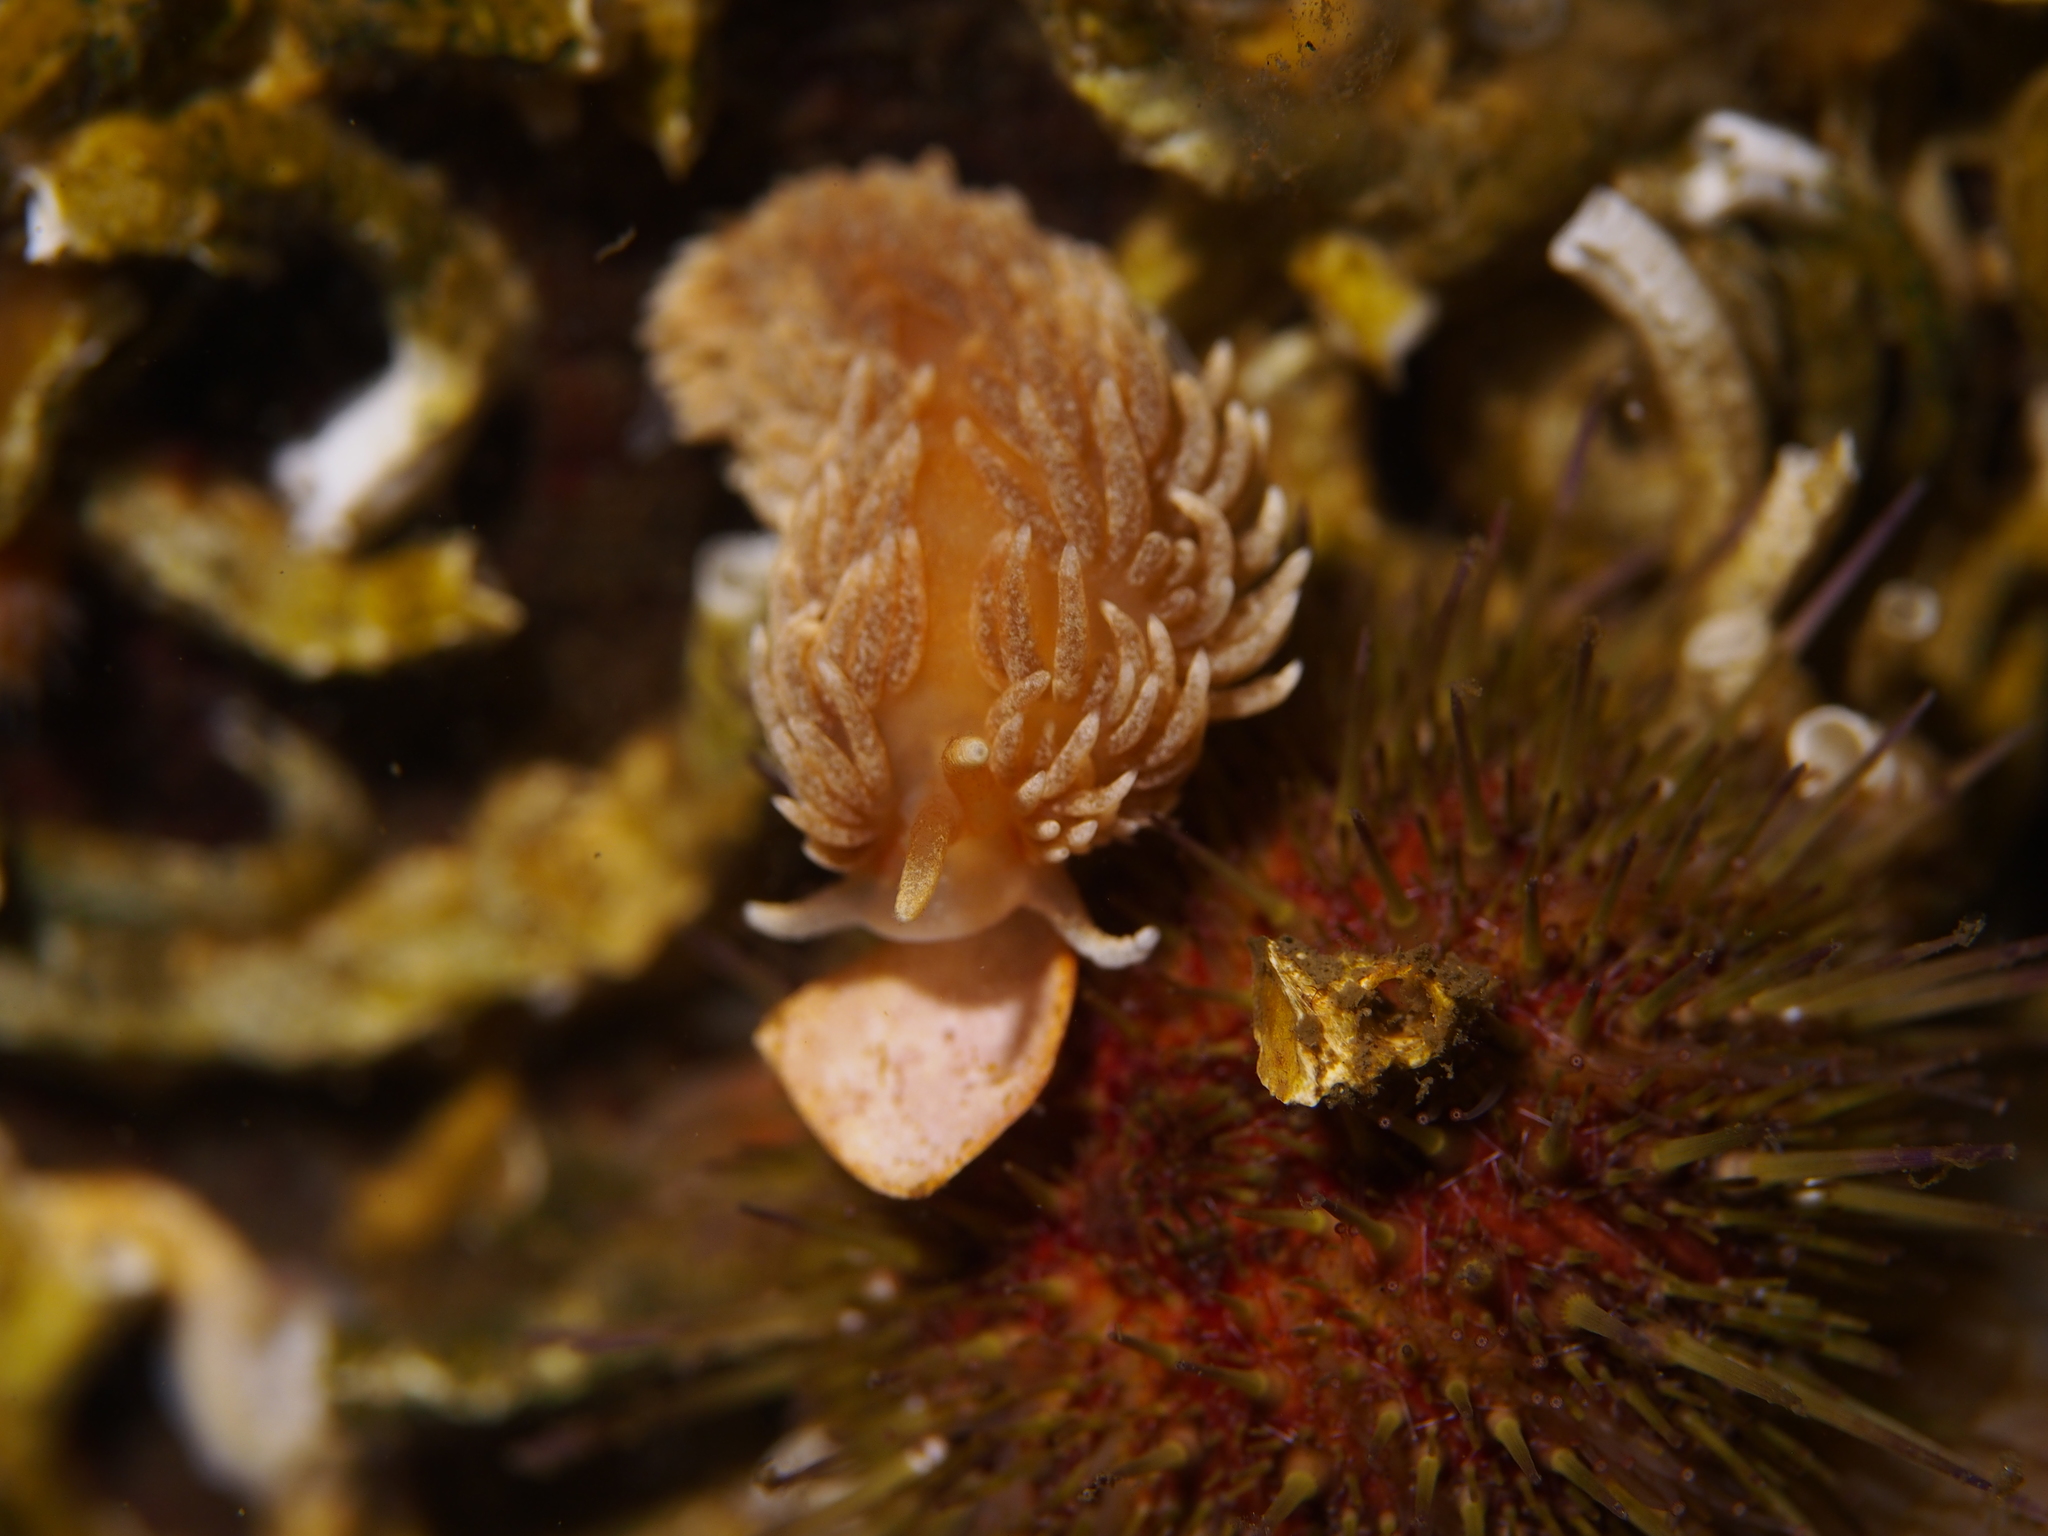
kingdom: Animalia
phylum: Mollusca
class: Gastropoda
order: Nudibranchia
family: Aeolidiidae
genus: Aeolidiella
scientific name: Aeolidiella glauca
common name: Orange-brown aeolid
